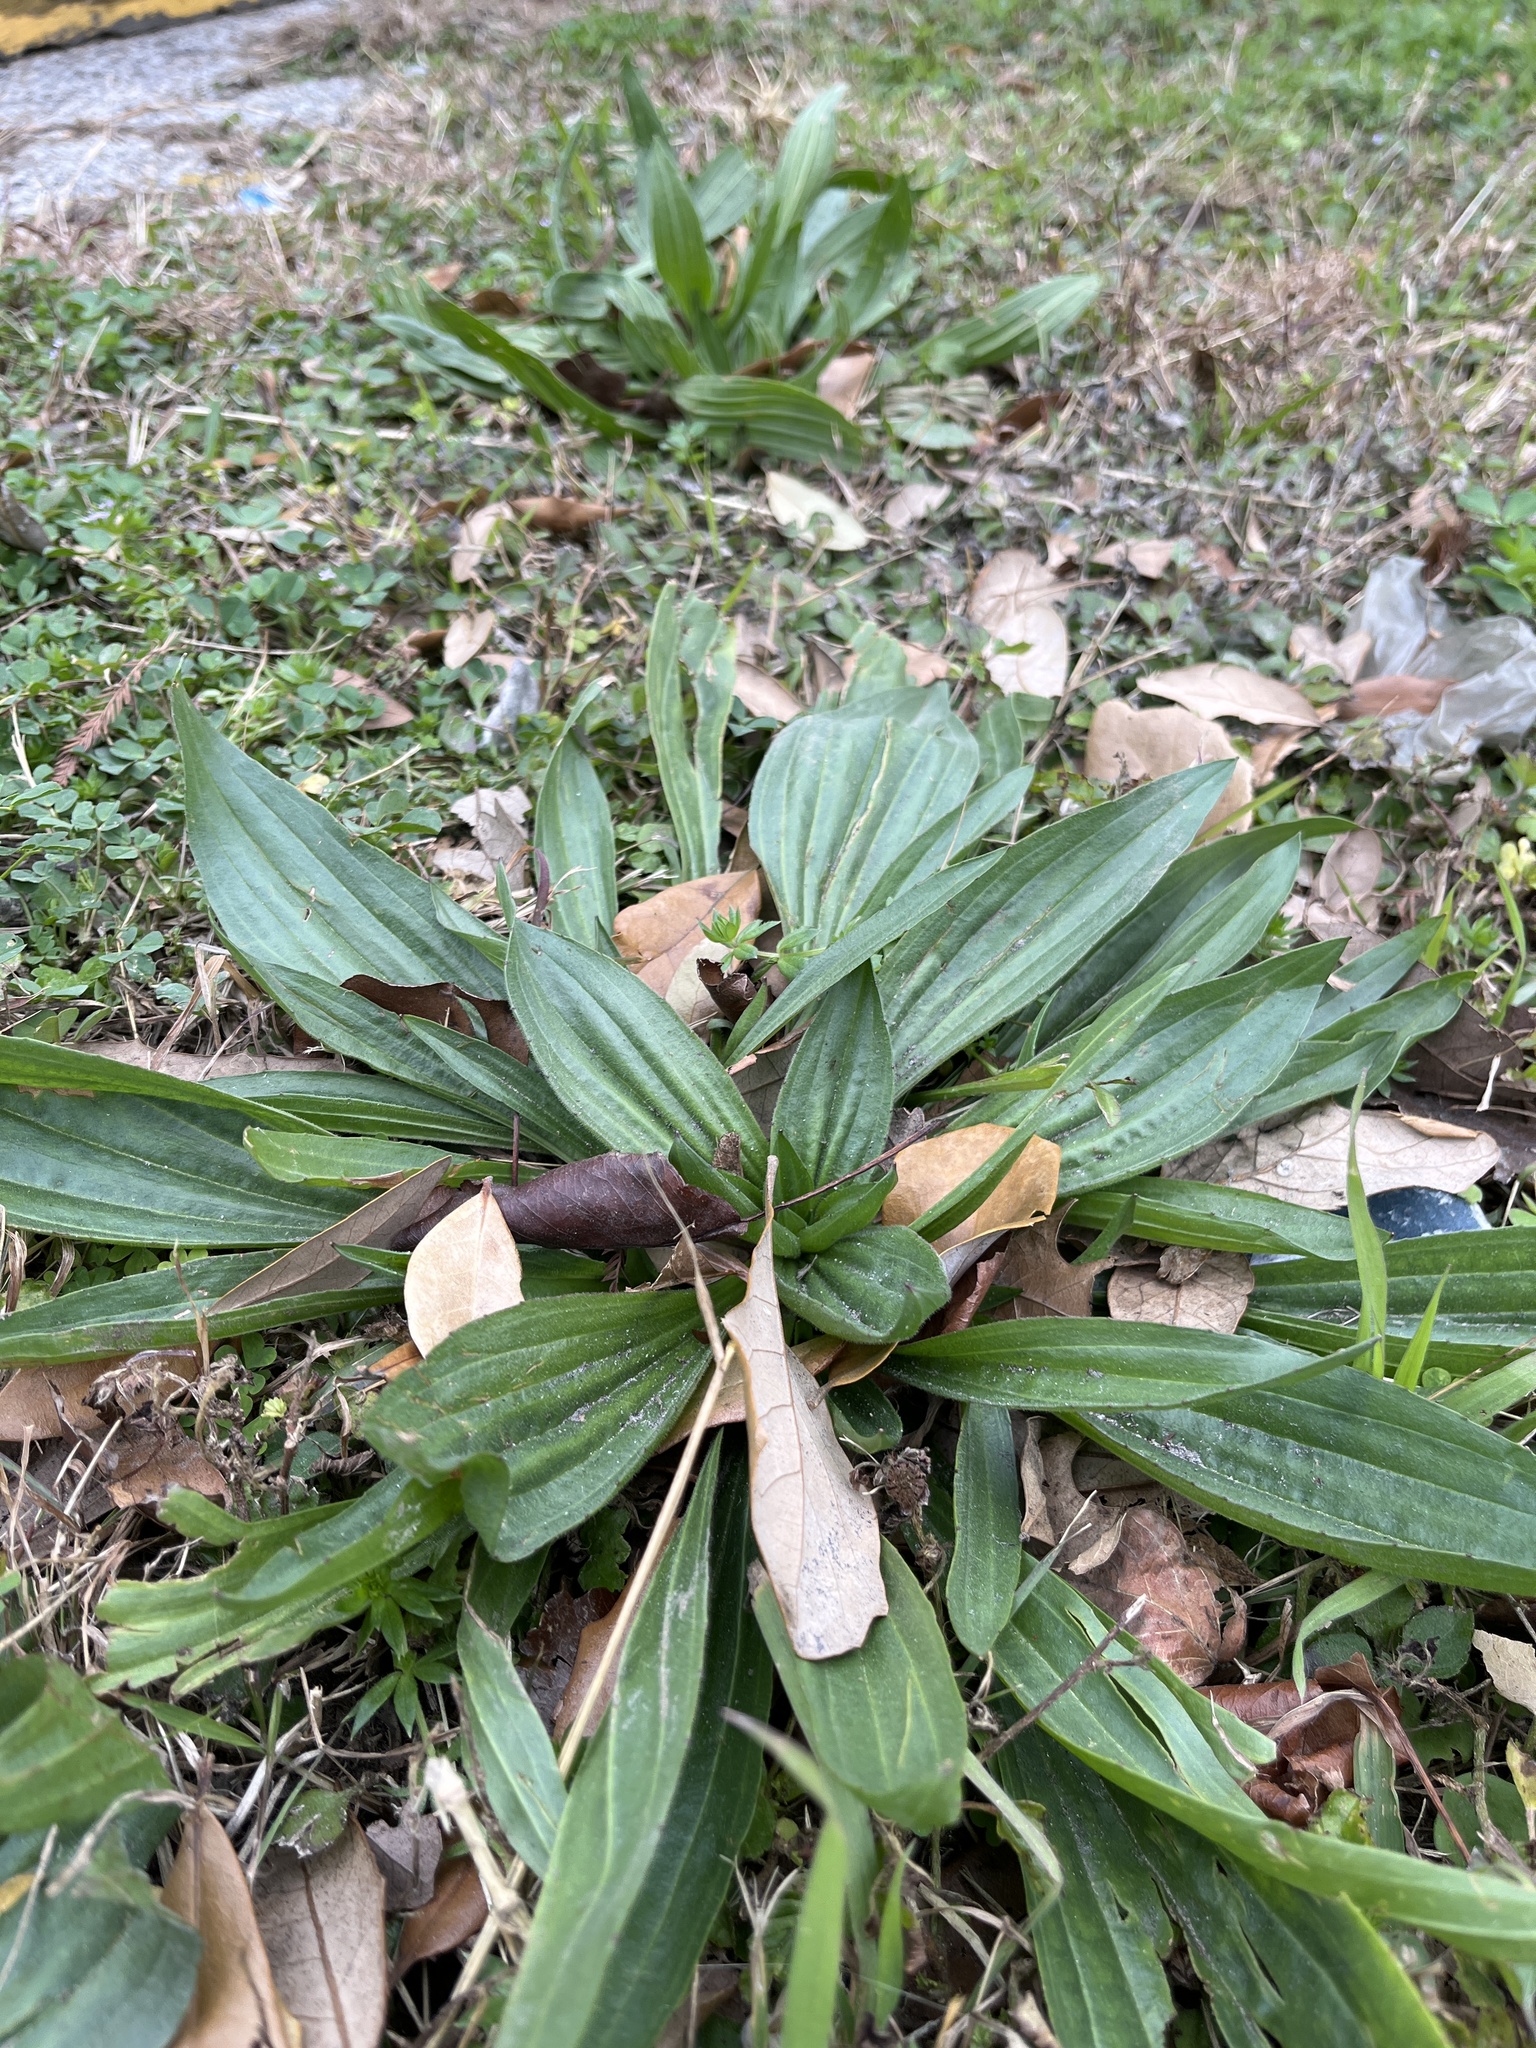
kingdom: Plantae
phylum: Tracheophyta
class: Magnoliopsida
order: Lamiales
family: Plantaginaceae
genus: Plantago
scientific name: Plantago lanceolata
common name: Ribwort plantain
